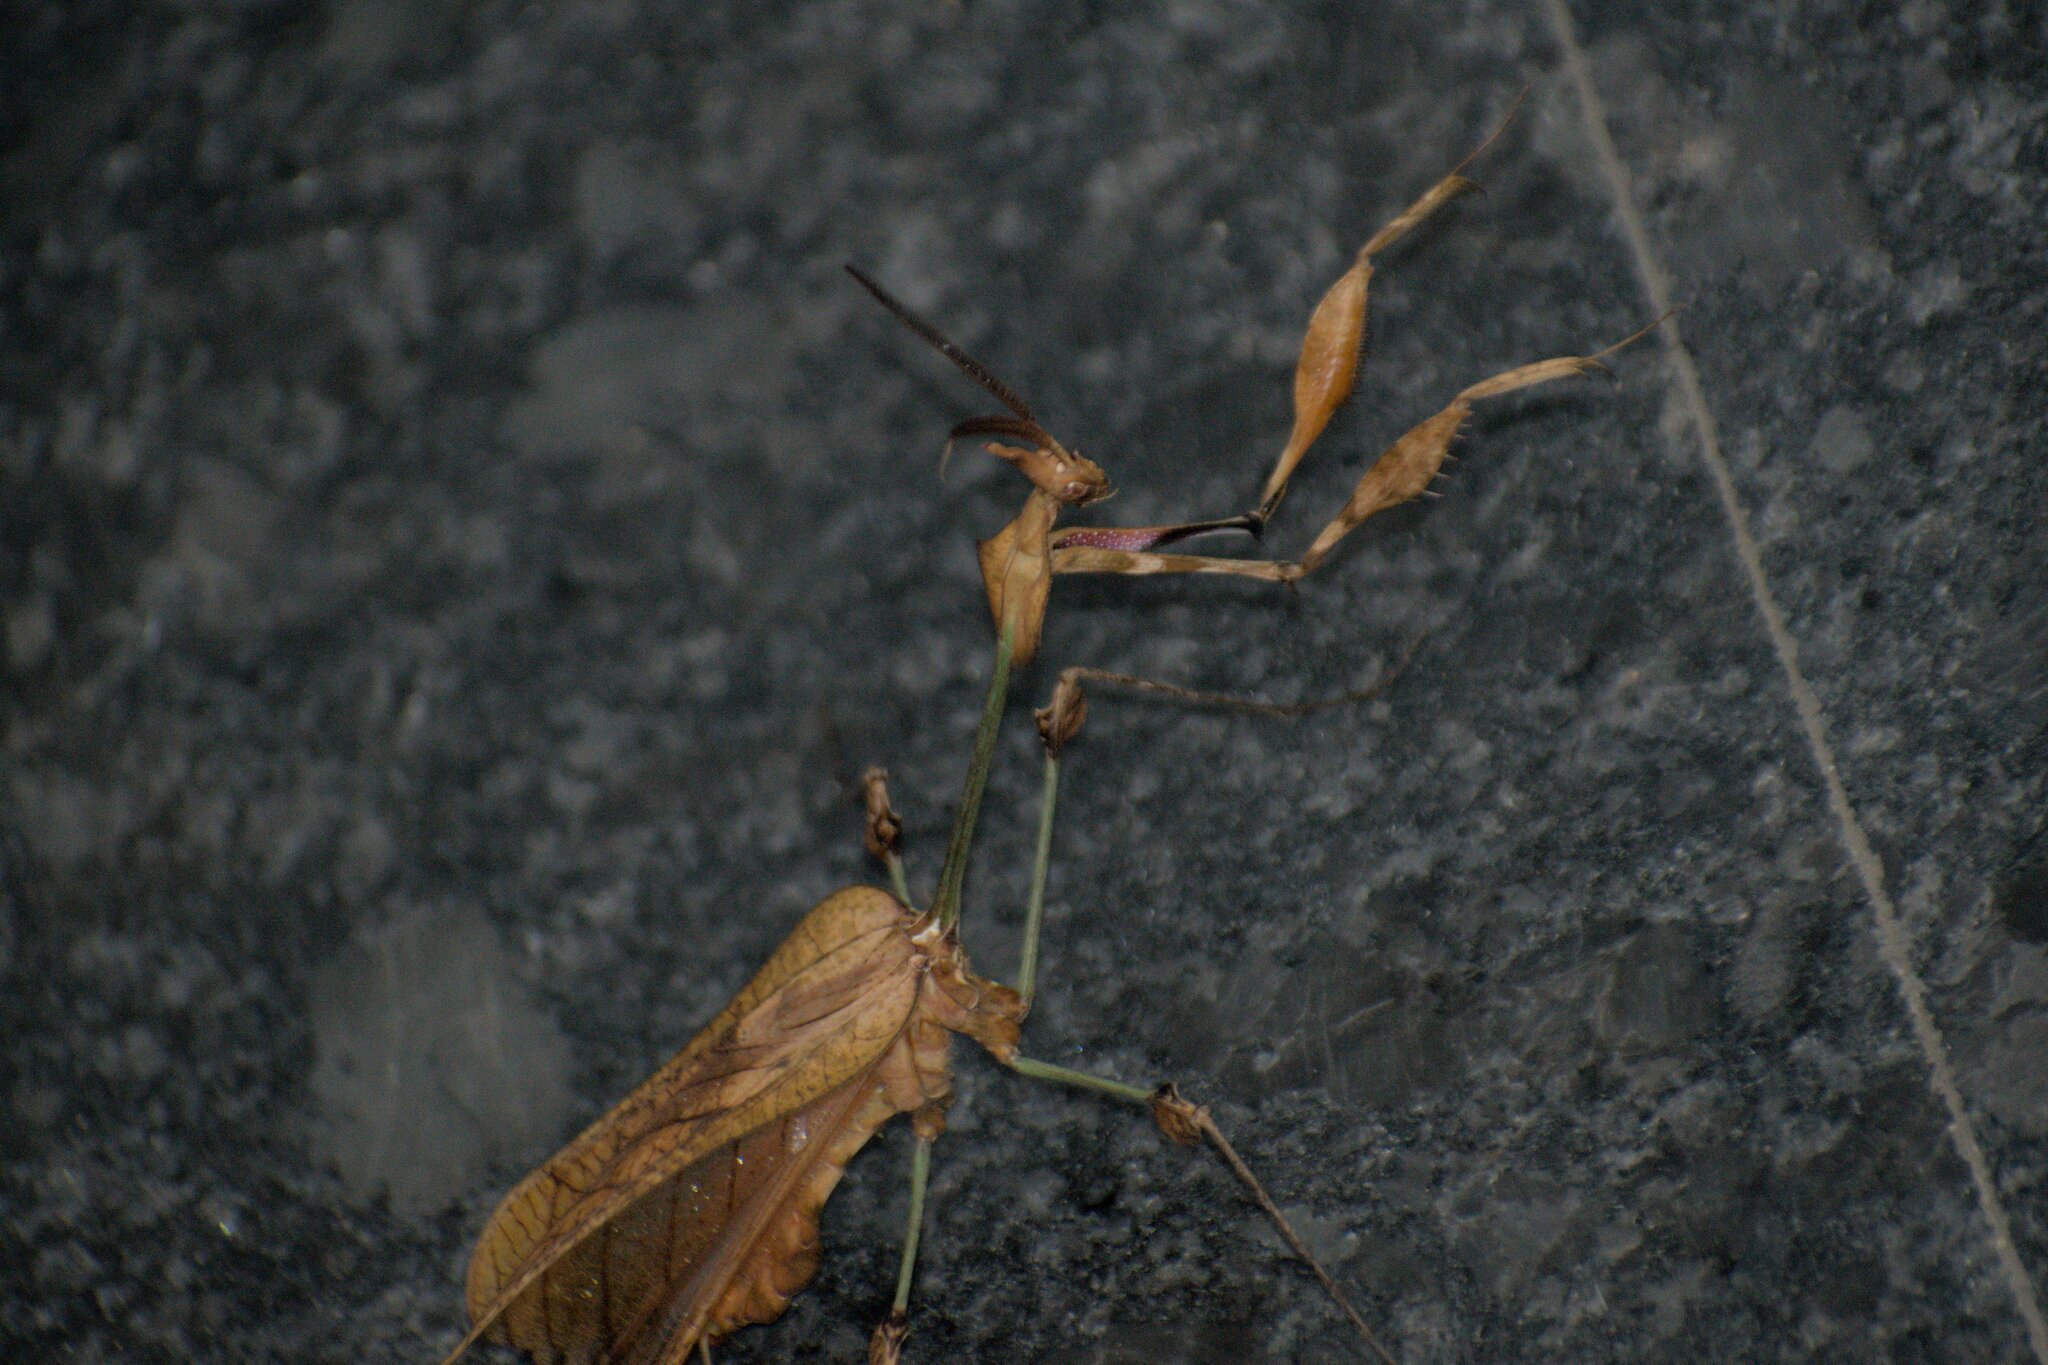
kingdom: Animalia
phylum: Arthropoda
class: Insecta
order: Mantodea
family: Empusidae
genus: Gongylus
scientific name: Gongylus gongylodes
